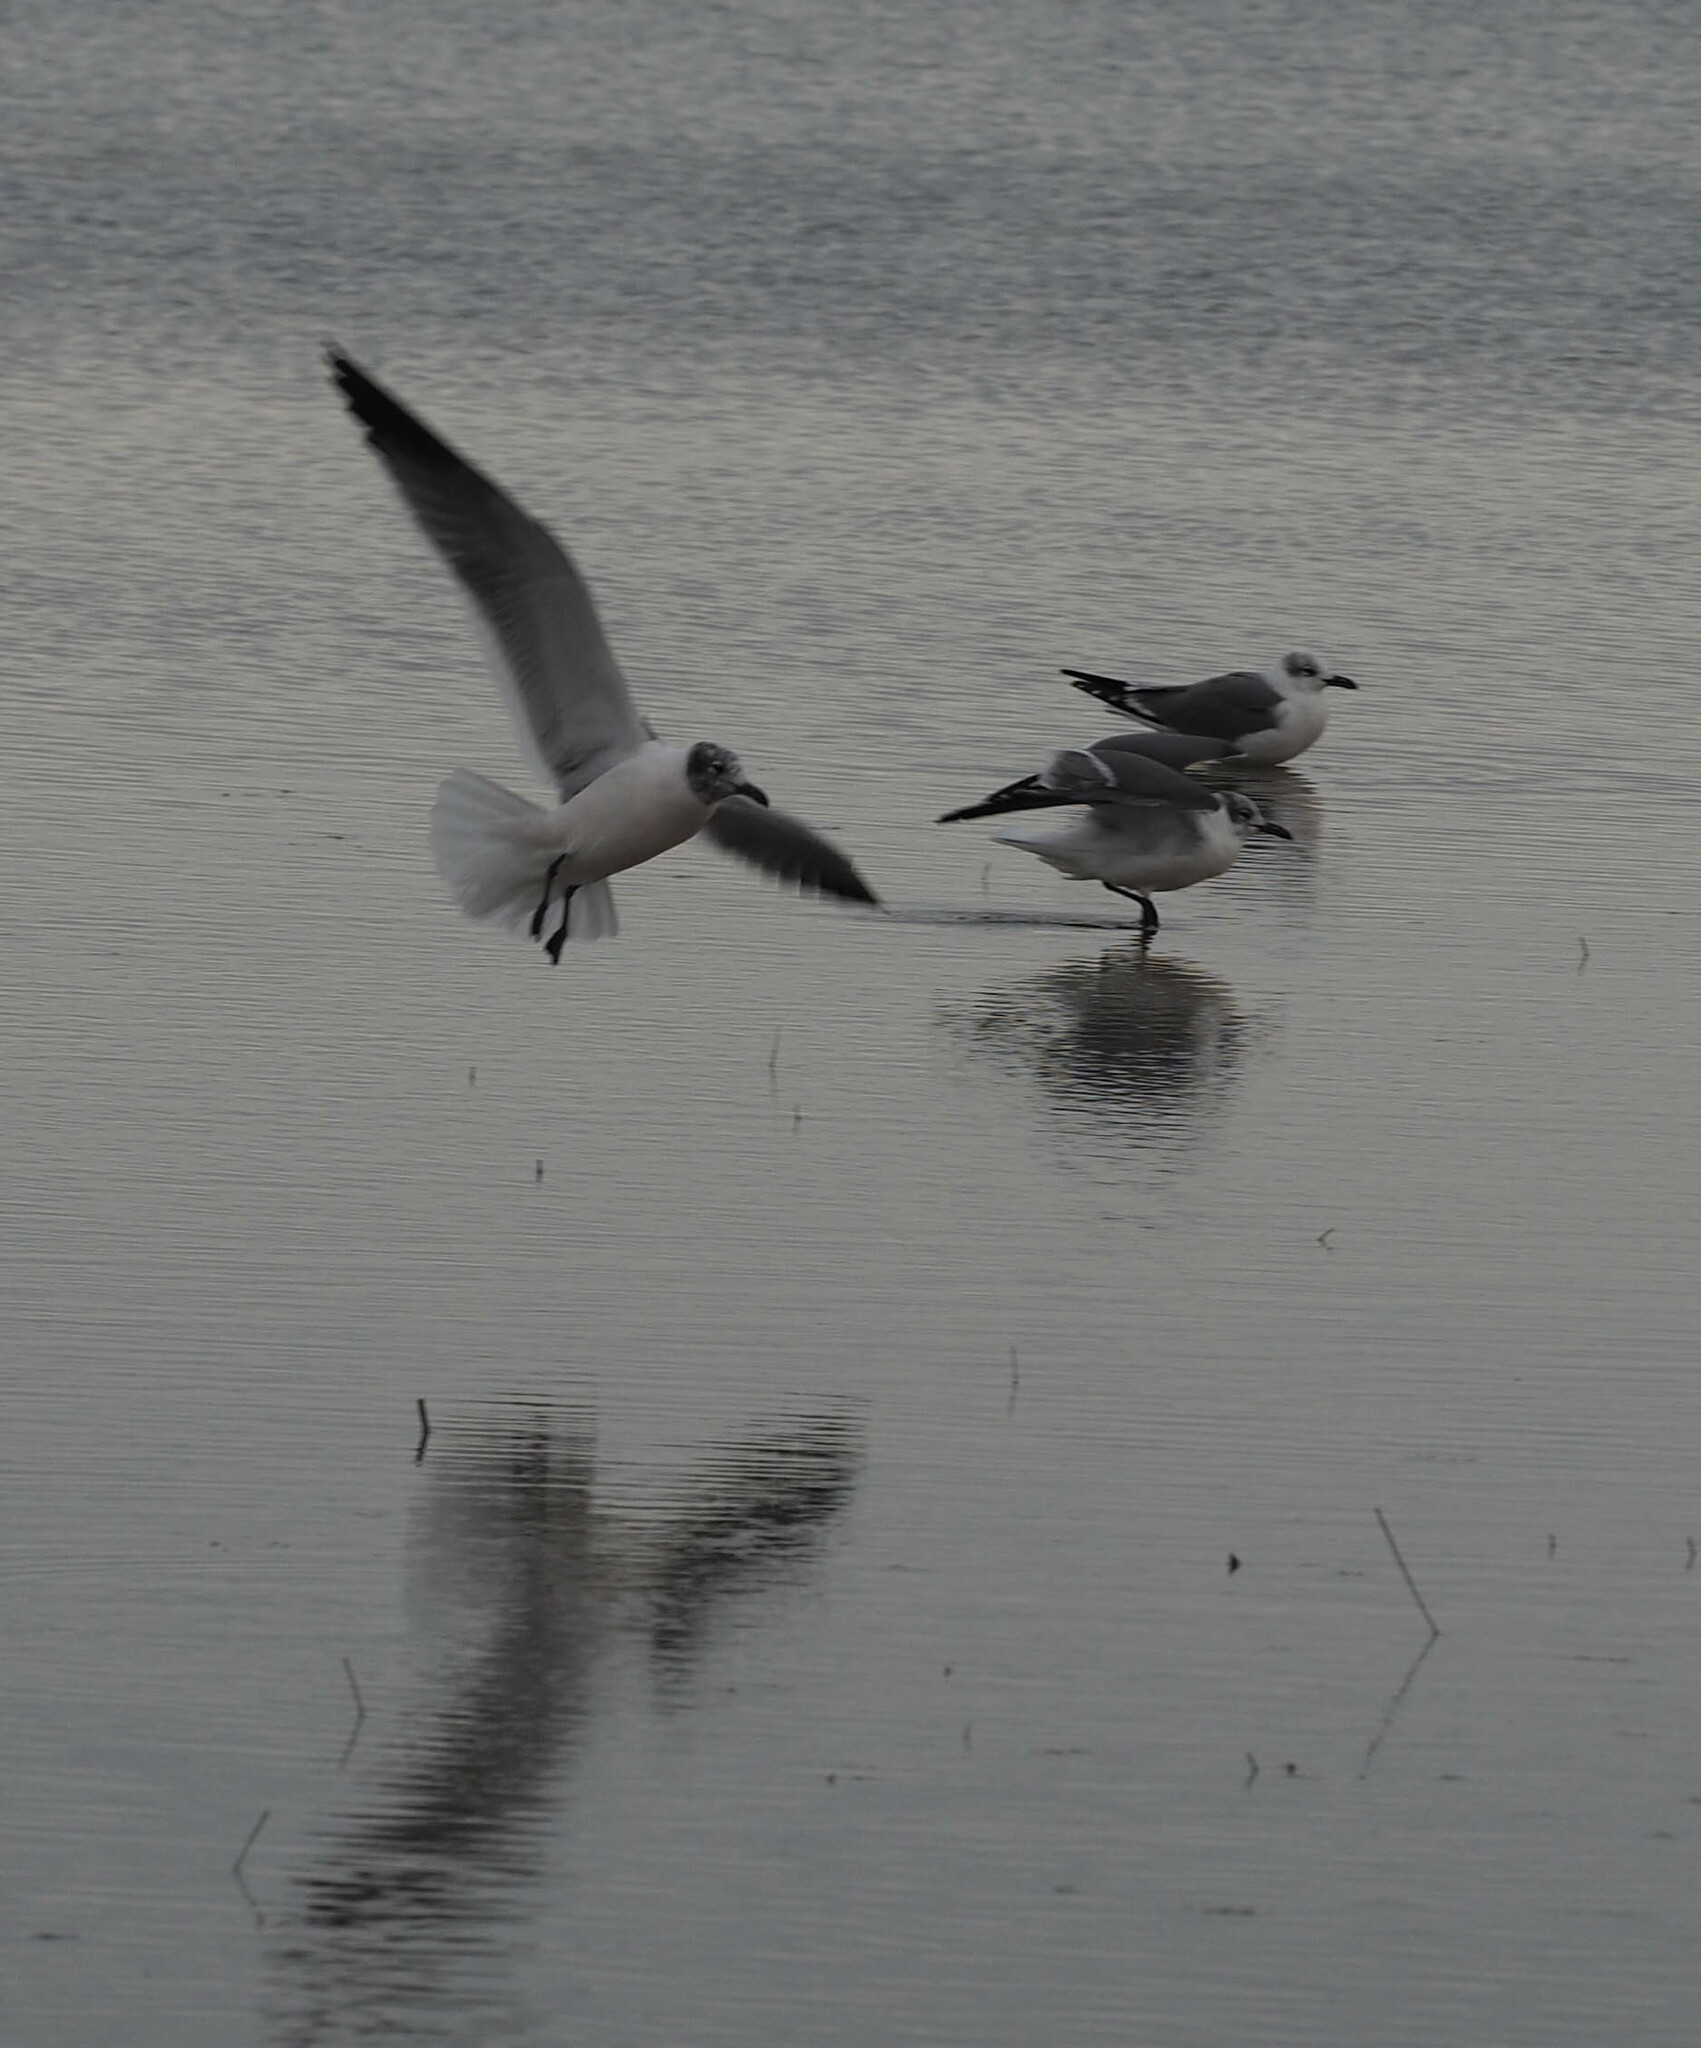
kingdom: Animalia
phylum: Chordata
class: Aves
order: Charadriiformes
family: Laridae
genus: Leucophaeus
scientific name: Leucophaeus atricilla
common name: Laughing gull
